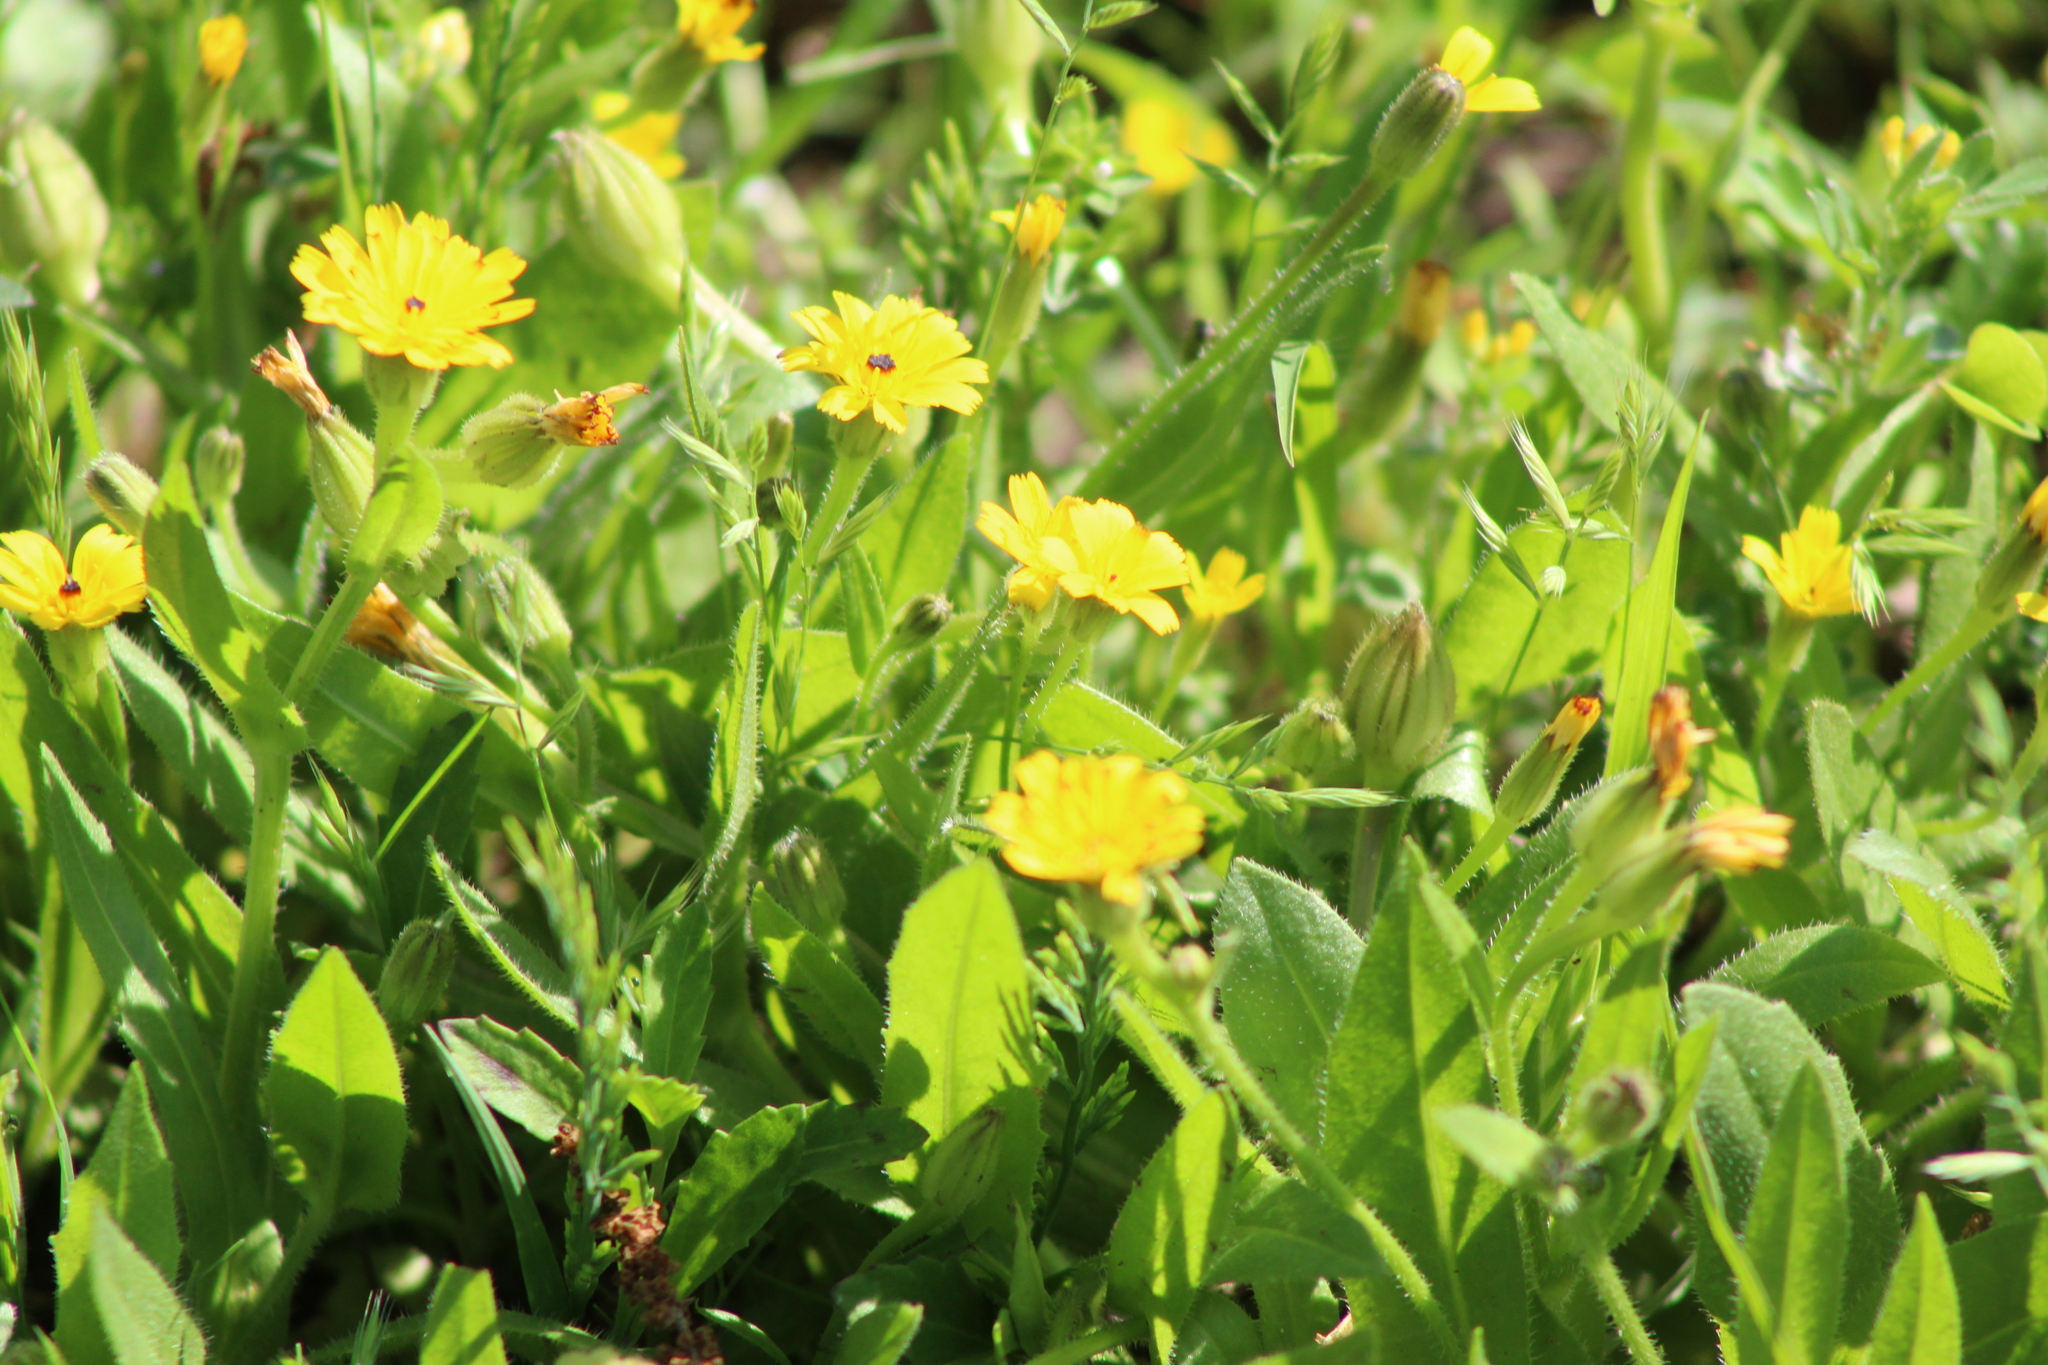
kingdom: Plantae
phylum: Tracheophyta
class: Magnoliopsida
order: Asterales
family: Asteraceae
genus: Hedypnois
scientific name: Hedypnois rhagadioloides
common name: Cretan weed
